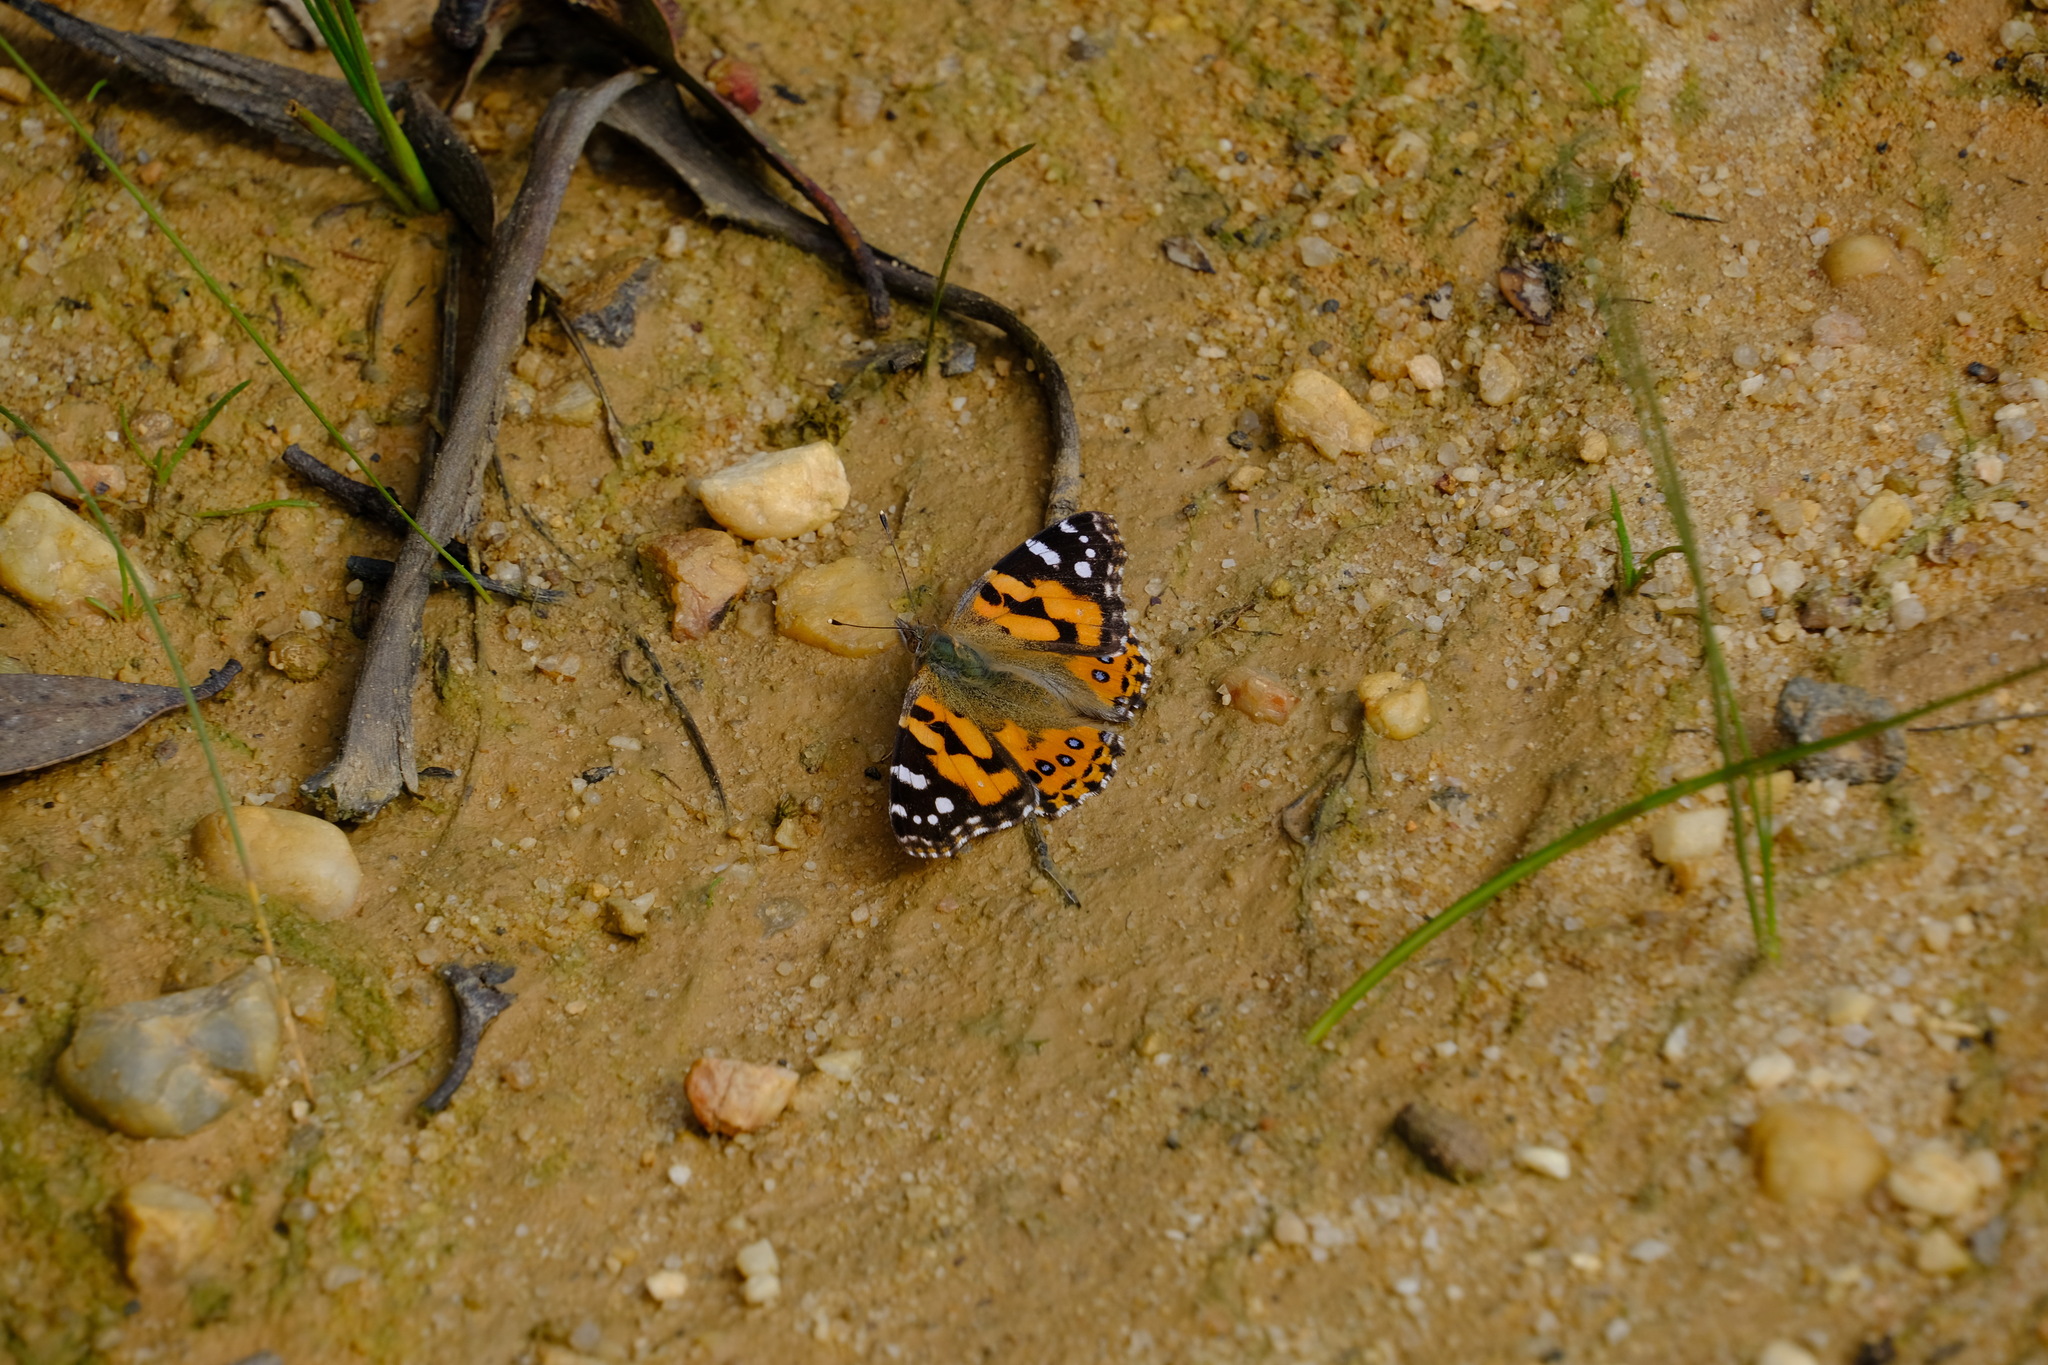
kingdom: Animalia
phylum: Arthropoda
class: Insecta
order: Lepidoptera
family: Nymphalidae
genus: Vanessa
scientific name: Vanessa kershawi
